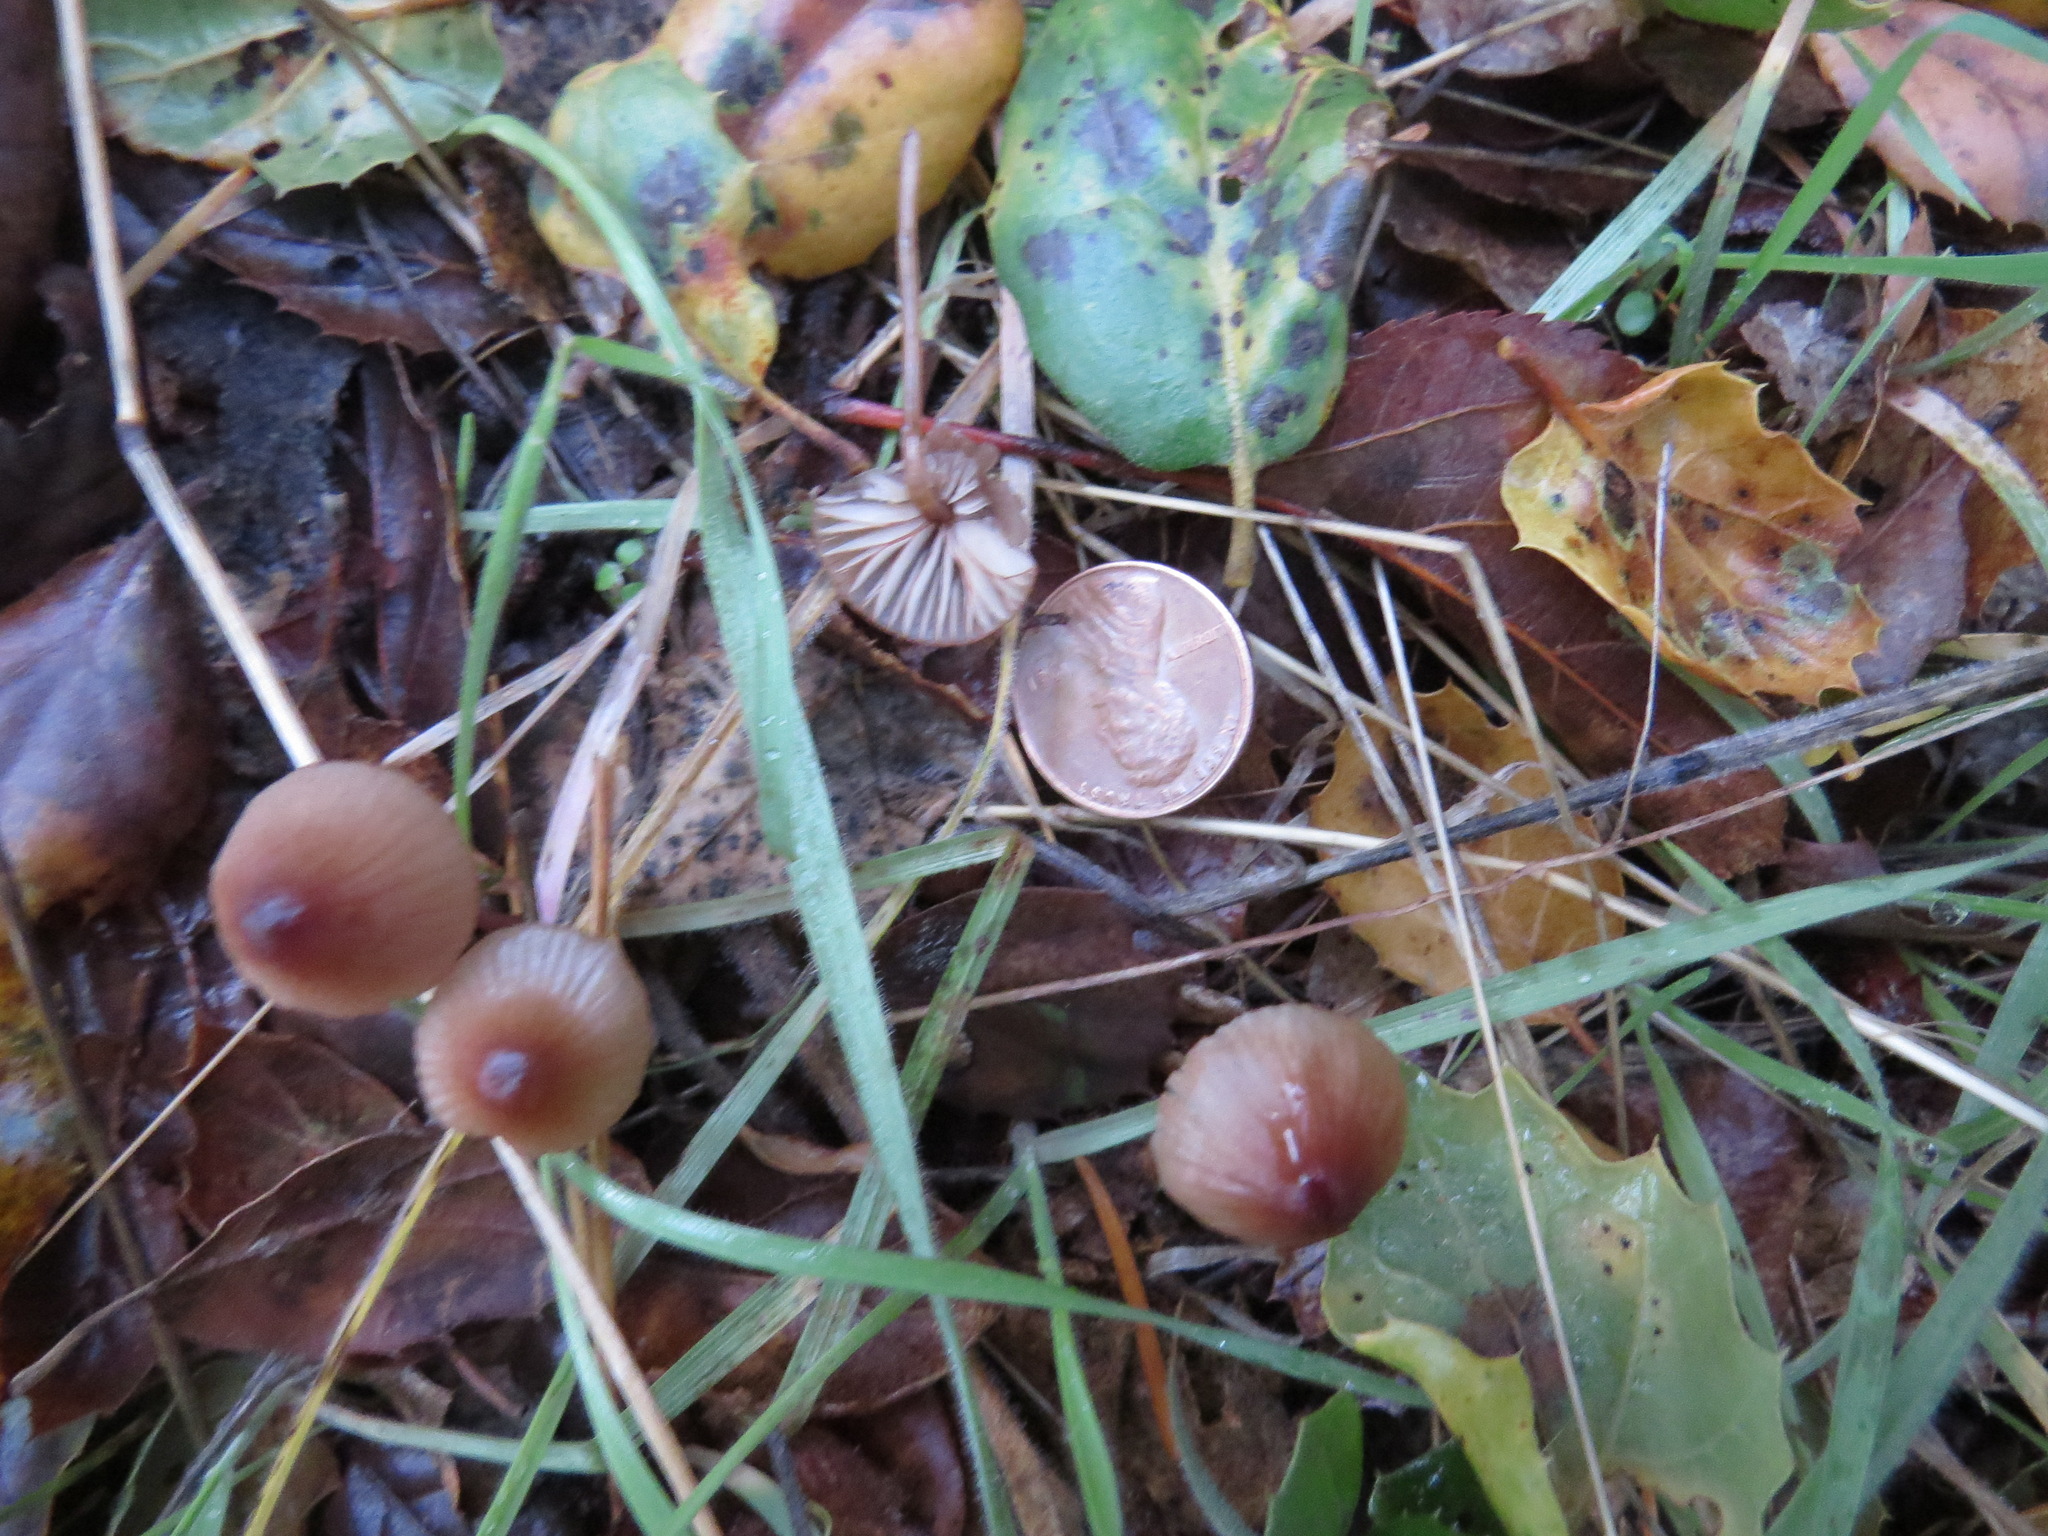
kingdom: Fungi
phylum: Basidiomycota
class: Agaricomycetes
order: Agaricales
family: Mycenaceae
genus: Mycena
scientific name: Mycena
